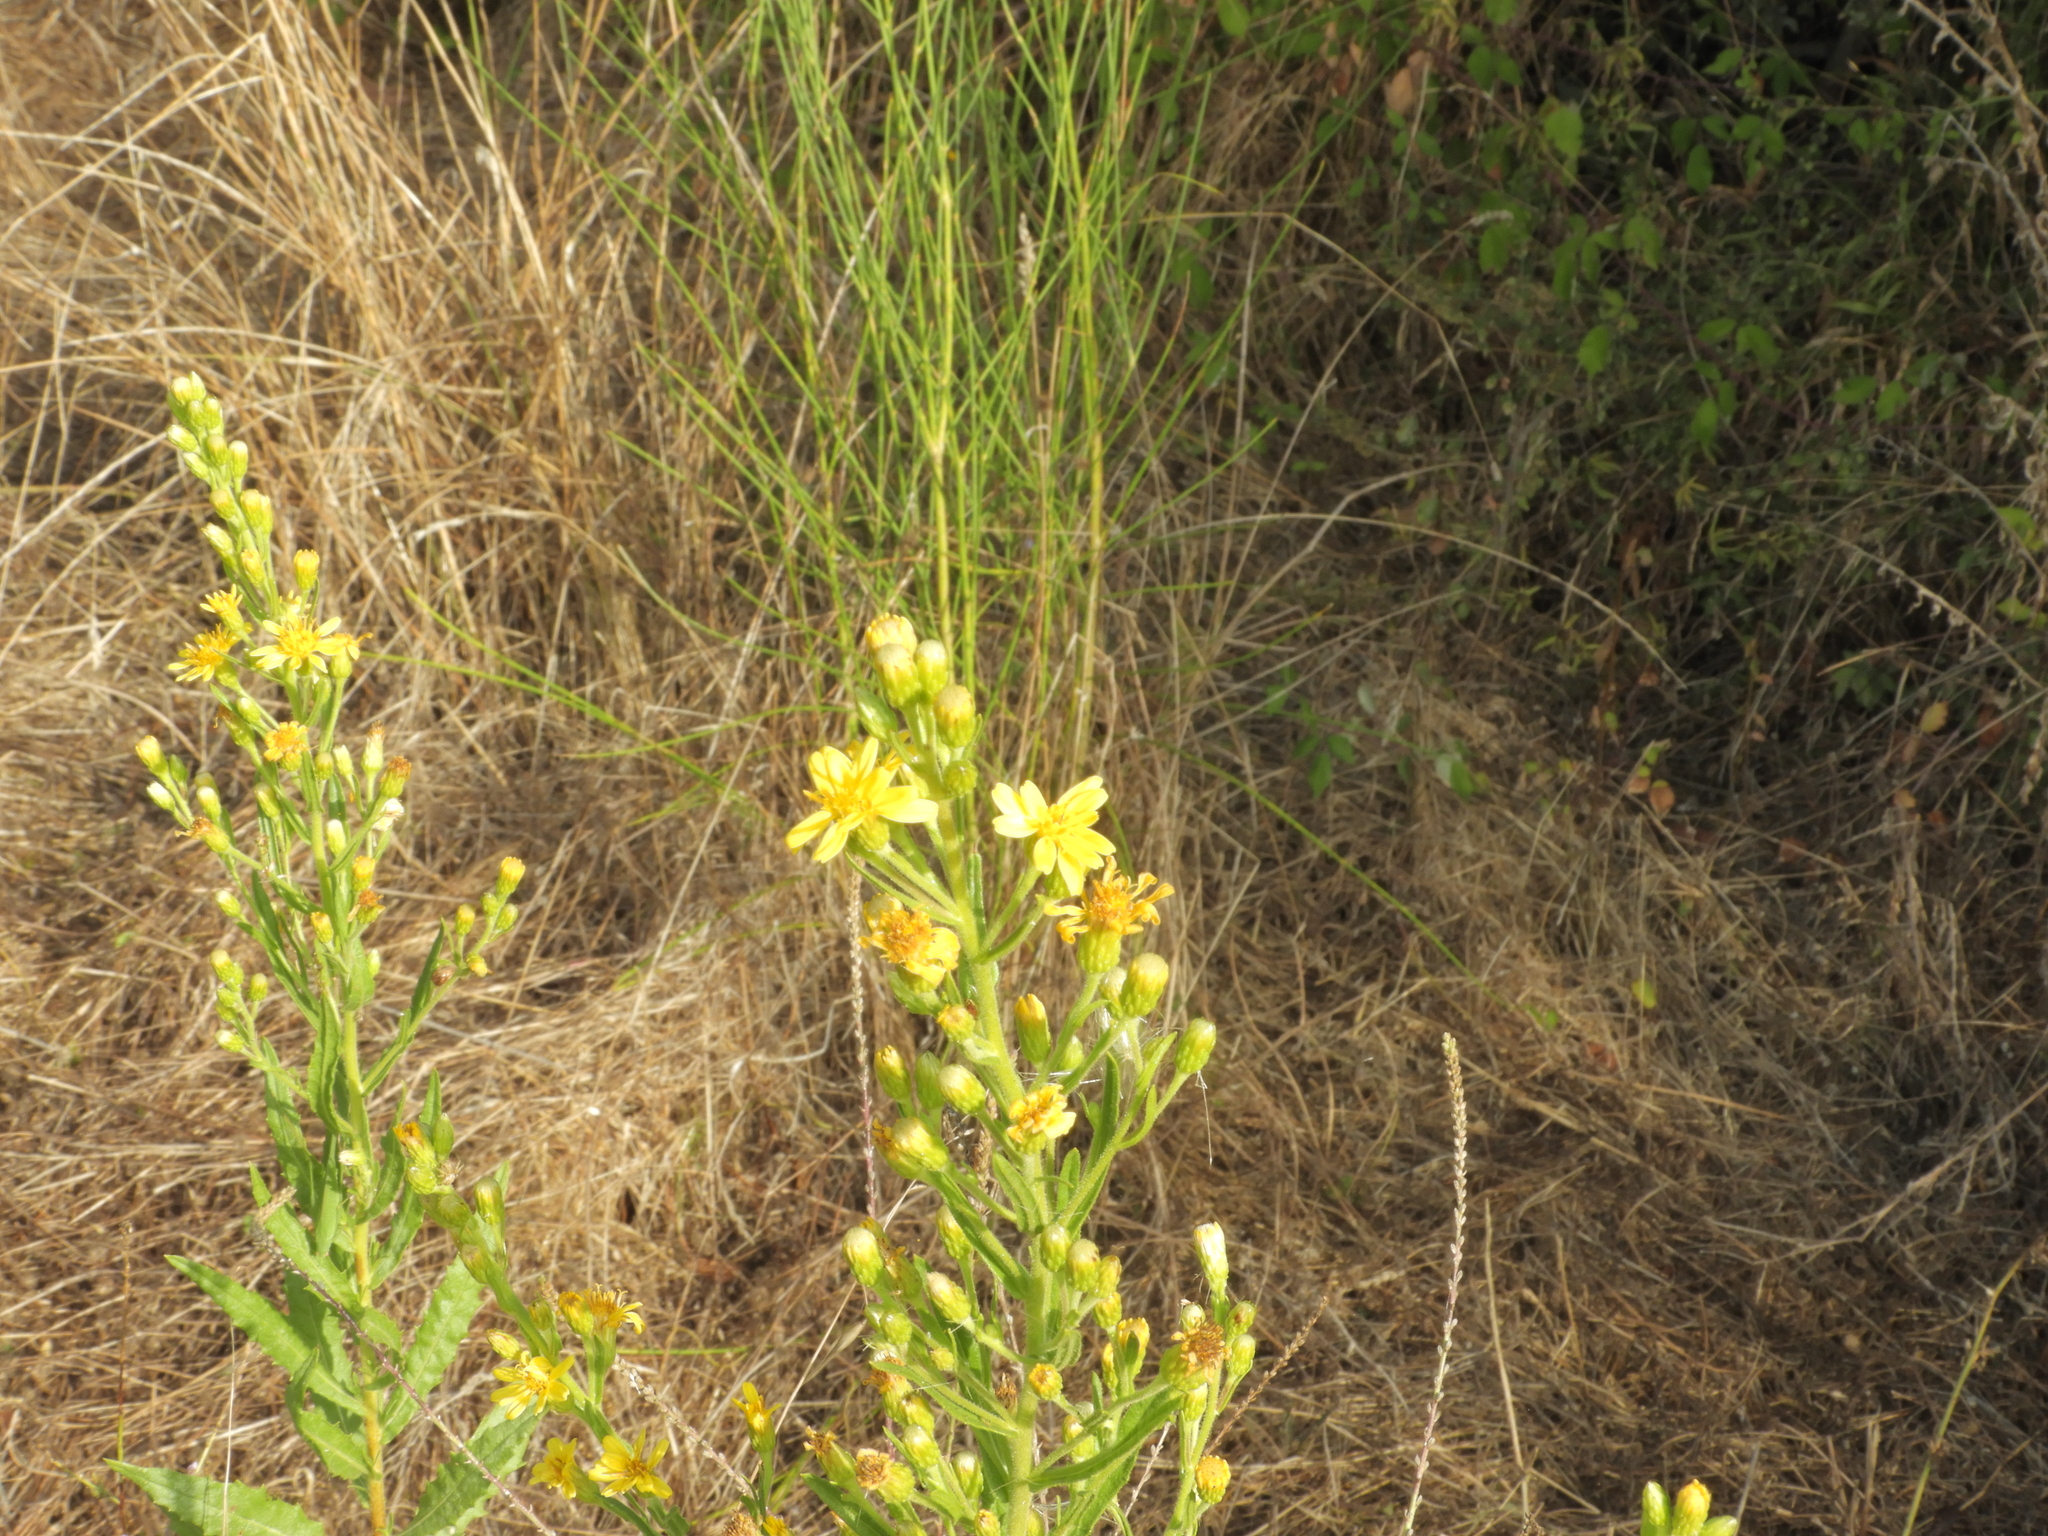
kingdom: Plantae
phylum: Tracheophyta
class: Magnoliopsida
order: Asterales
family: Asteraceae
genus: Dittrichia
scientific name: Dittrichia viscosa
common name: Woody fleabane
